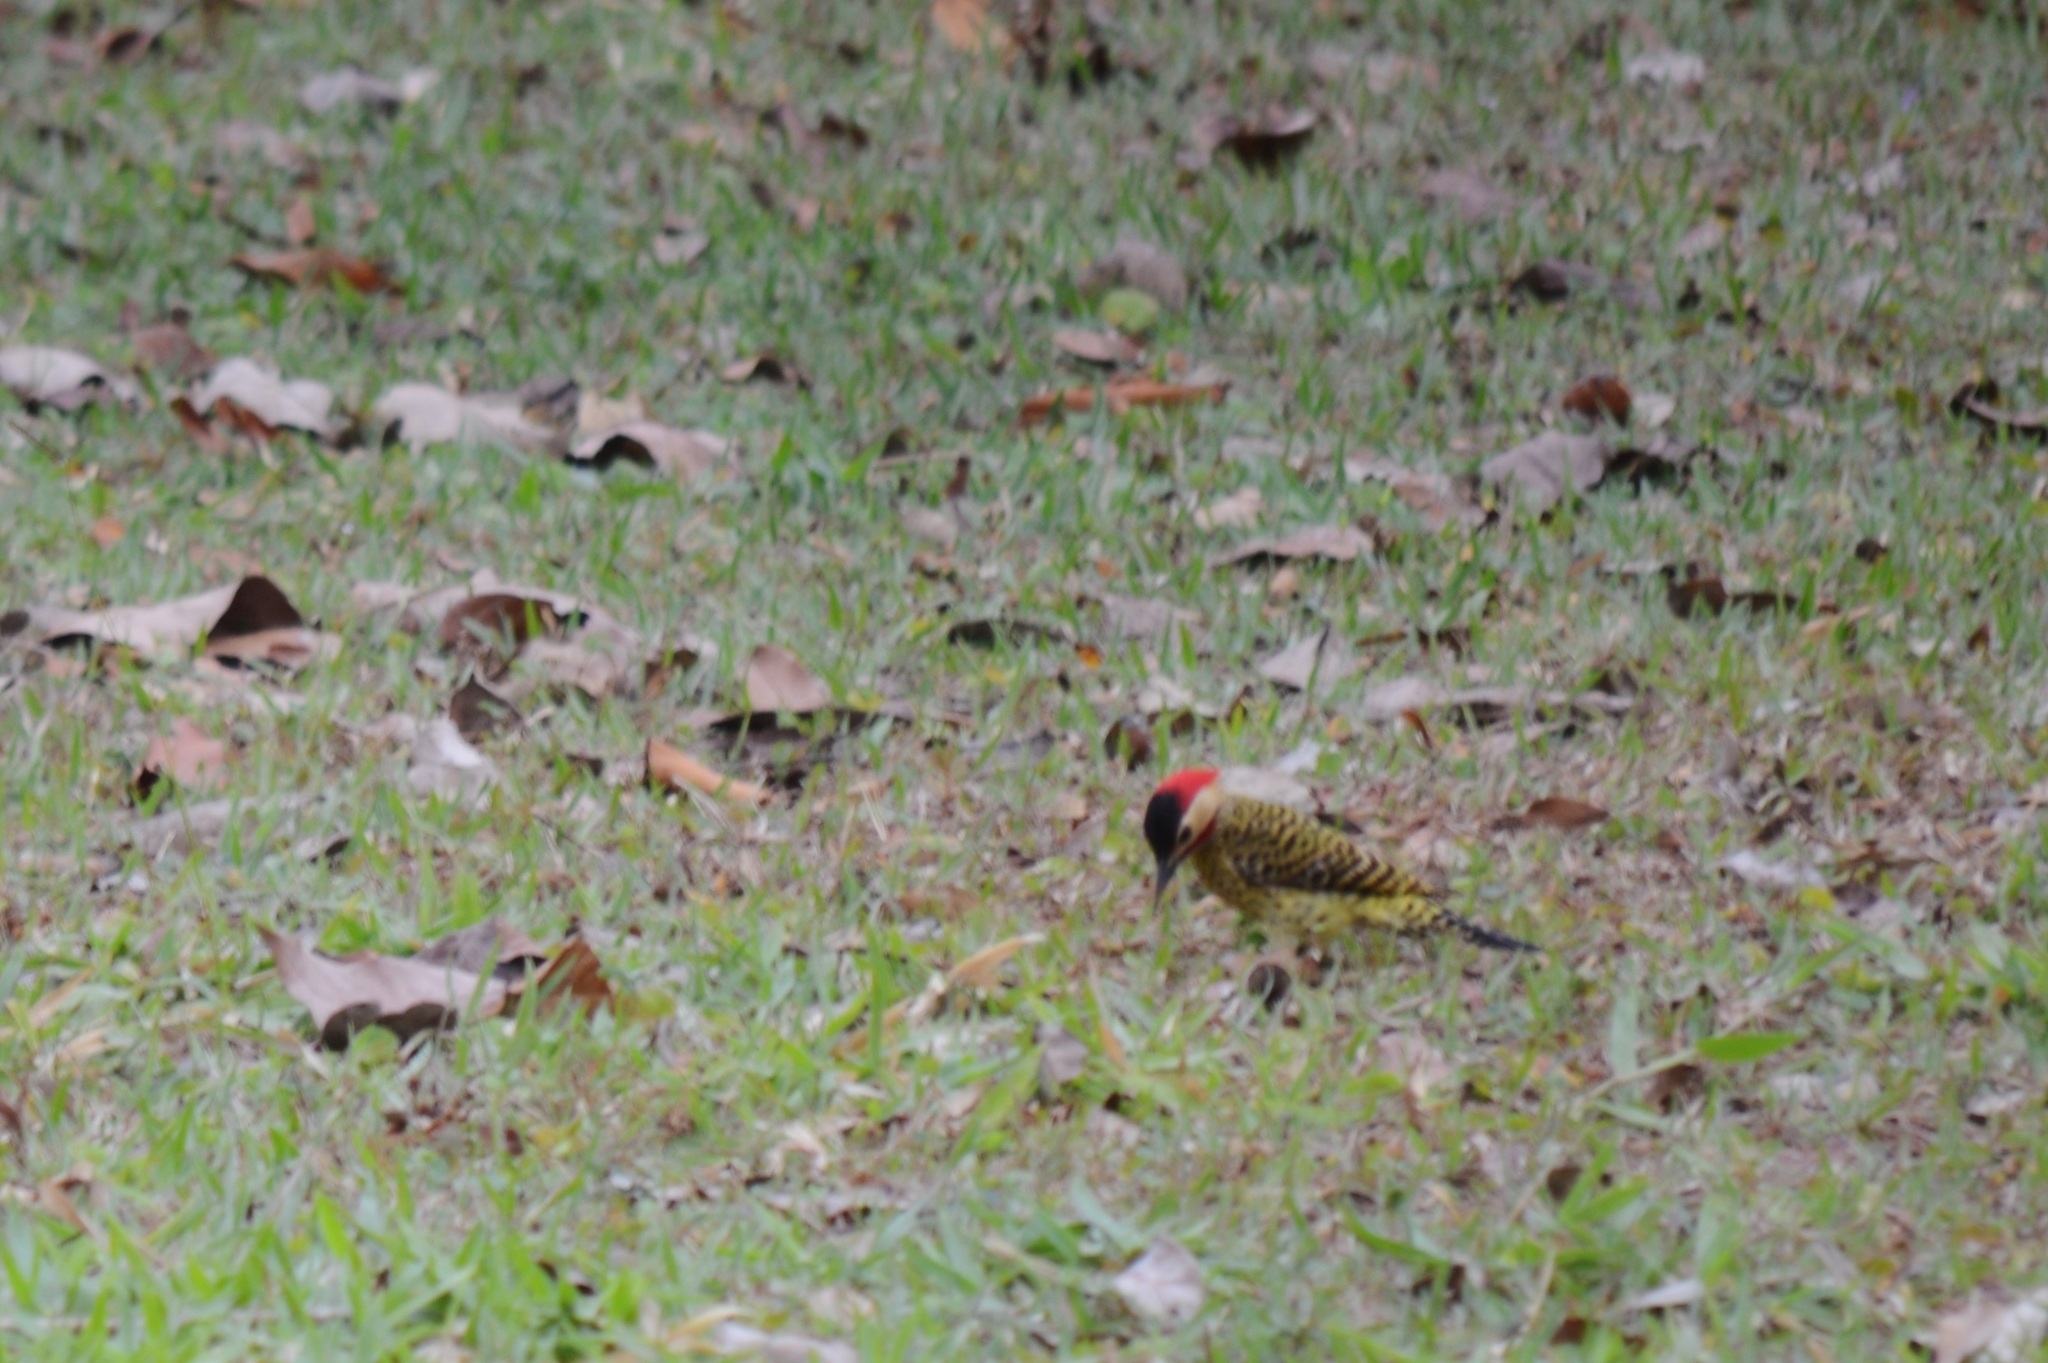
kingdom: Animalia
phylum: Chordata
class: Aves
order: Piciformes
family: Picidae
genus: Colaptes
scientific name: Colaptes melanochloros
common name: Green-barred woodpecker
